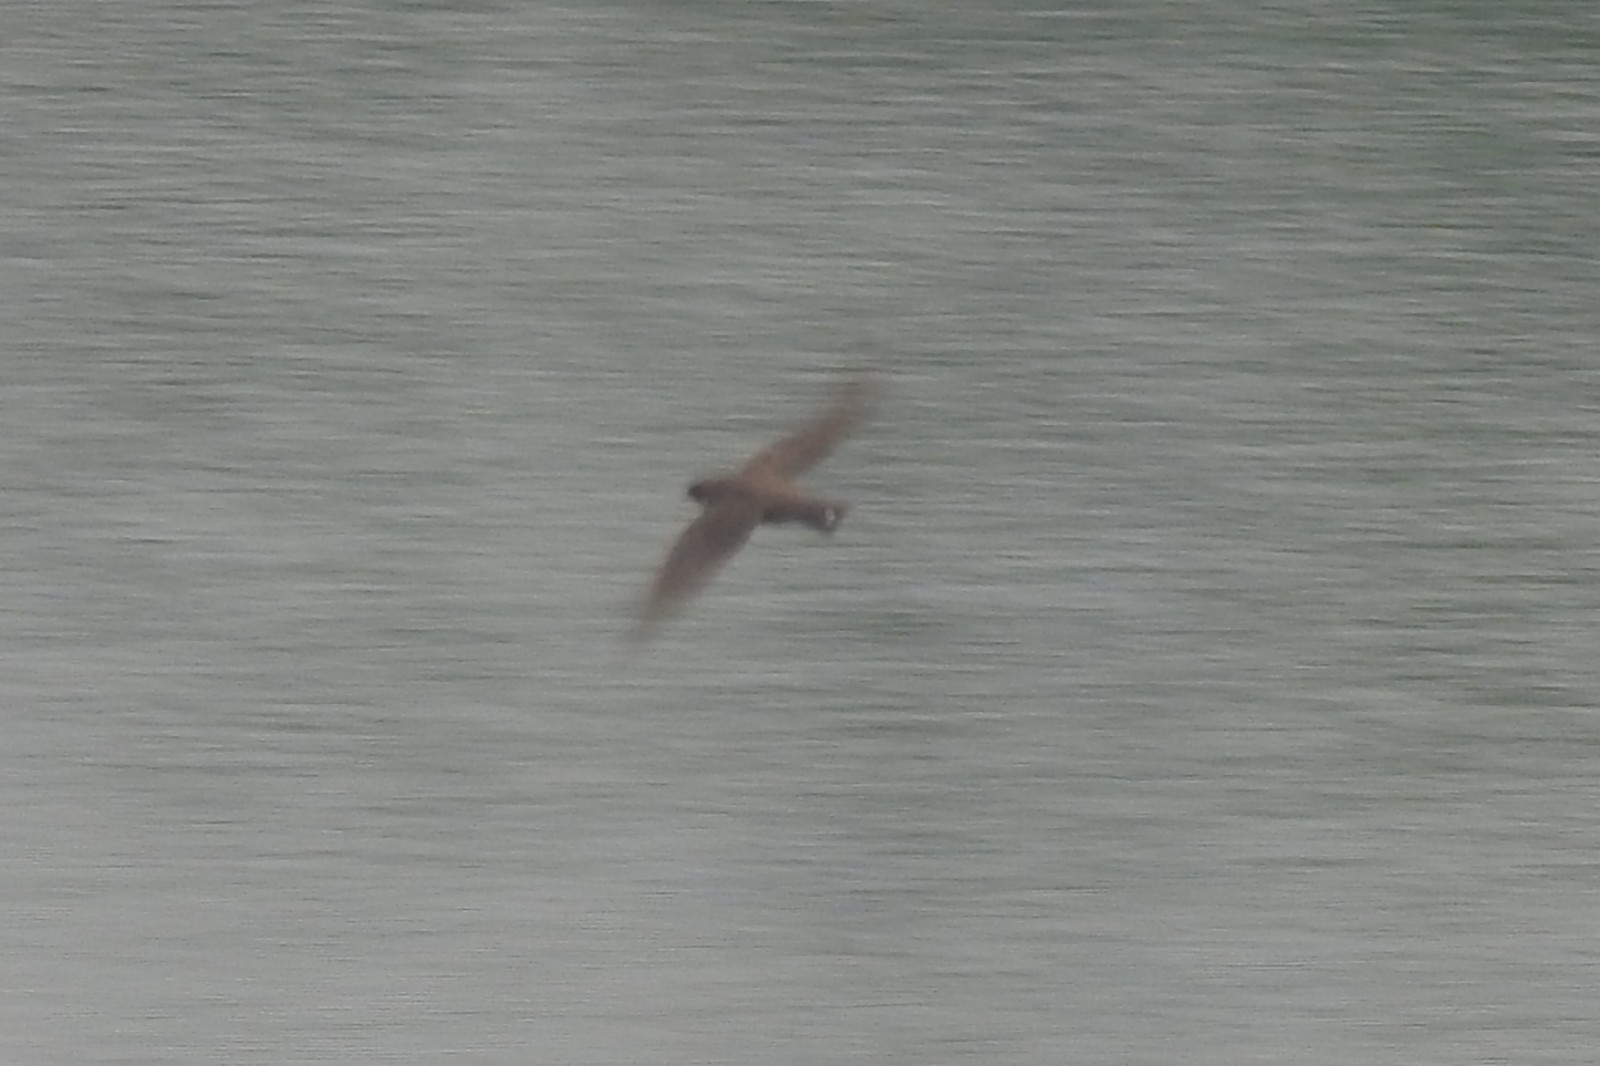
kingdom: Animalia
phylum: Chordata
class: Aves
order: Passeriformes
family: Hirundinidae
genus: Ptyonoprogne
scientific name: Ptyonoprogne concolor
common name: Dusky crag-martin
